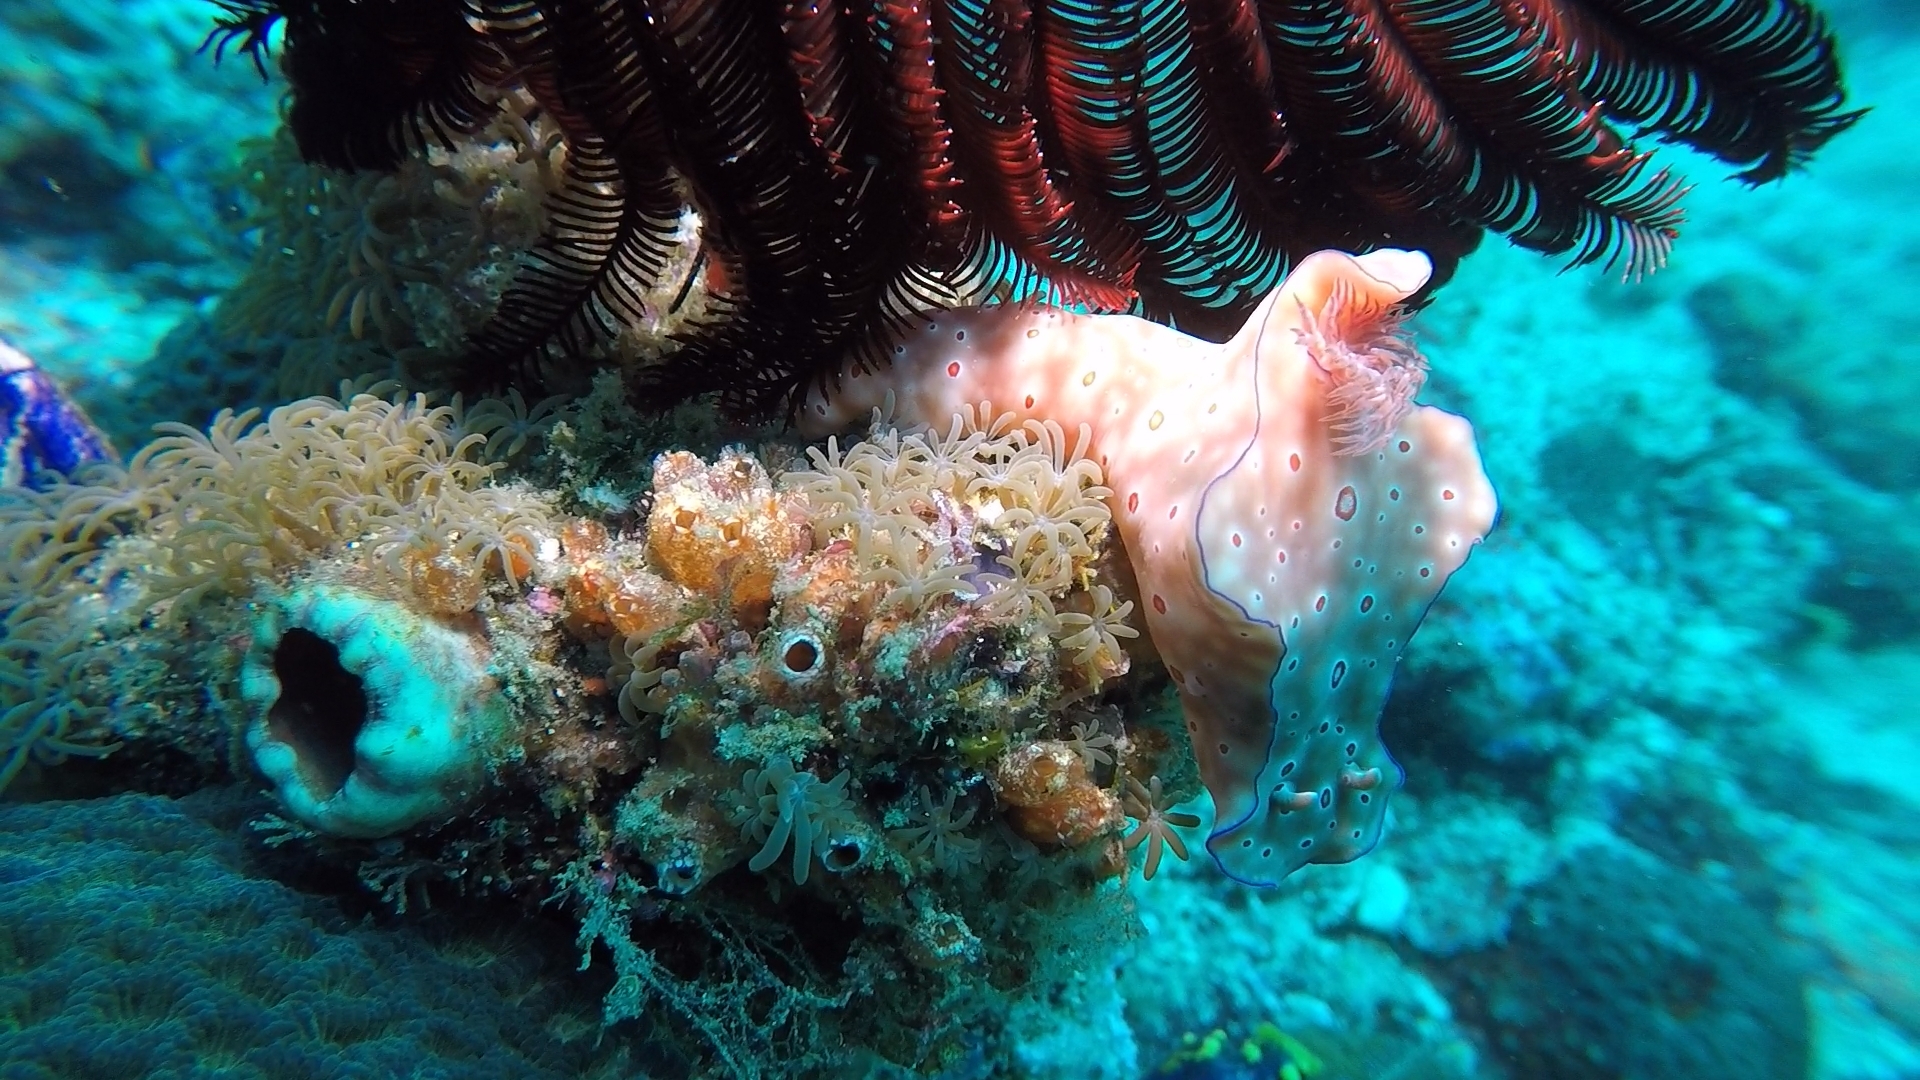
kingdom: Animalia
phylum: Mollusca
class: Gastropoda
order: Nudibranchia
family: Chromodorididae
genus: Ceratosoma
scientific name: Ceratosoma trilobatum
